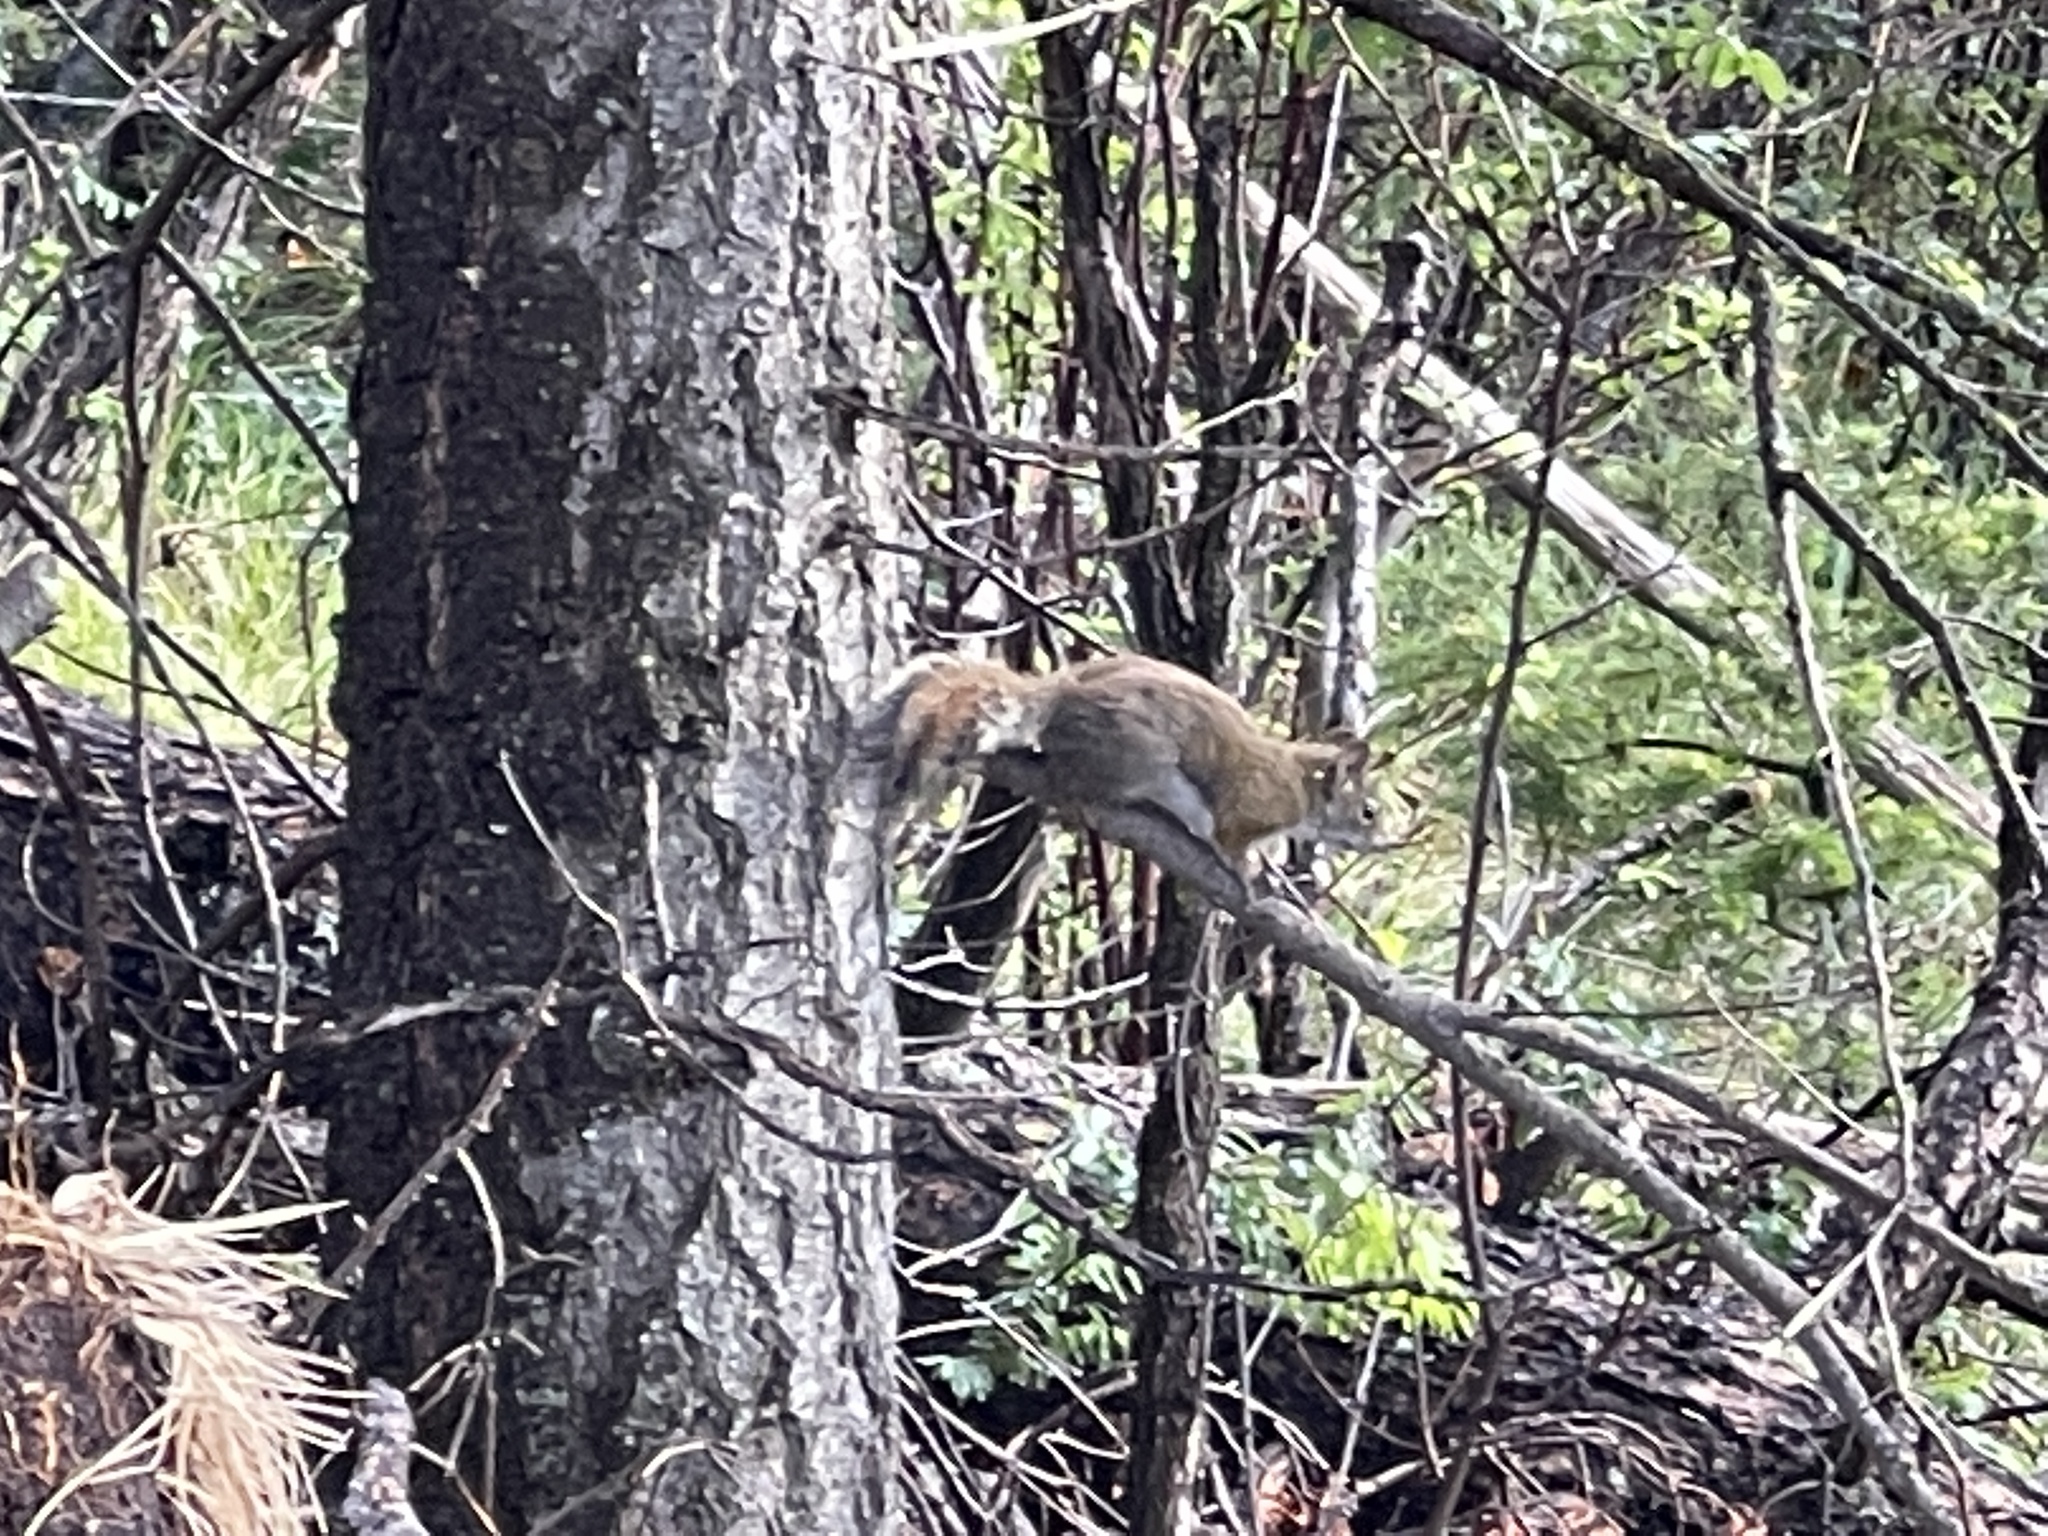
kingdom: Animalia
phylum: Chordata
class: Mammalia
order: Rodentia
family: Sciuridae
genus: Tamiasciurus
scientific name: Tamiasciurus hudsonicus
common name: Red squirrel
